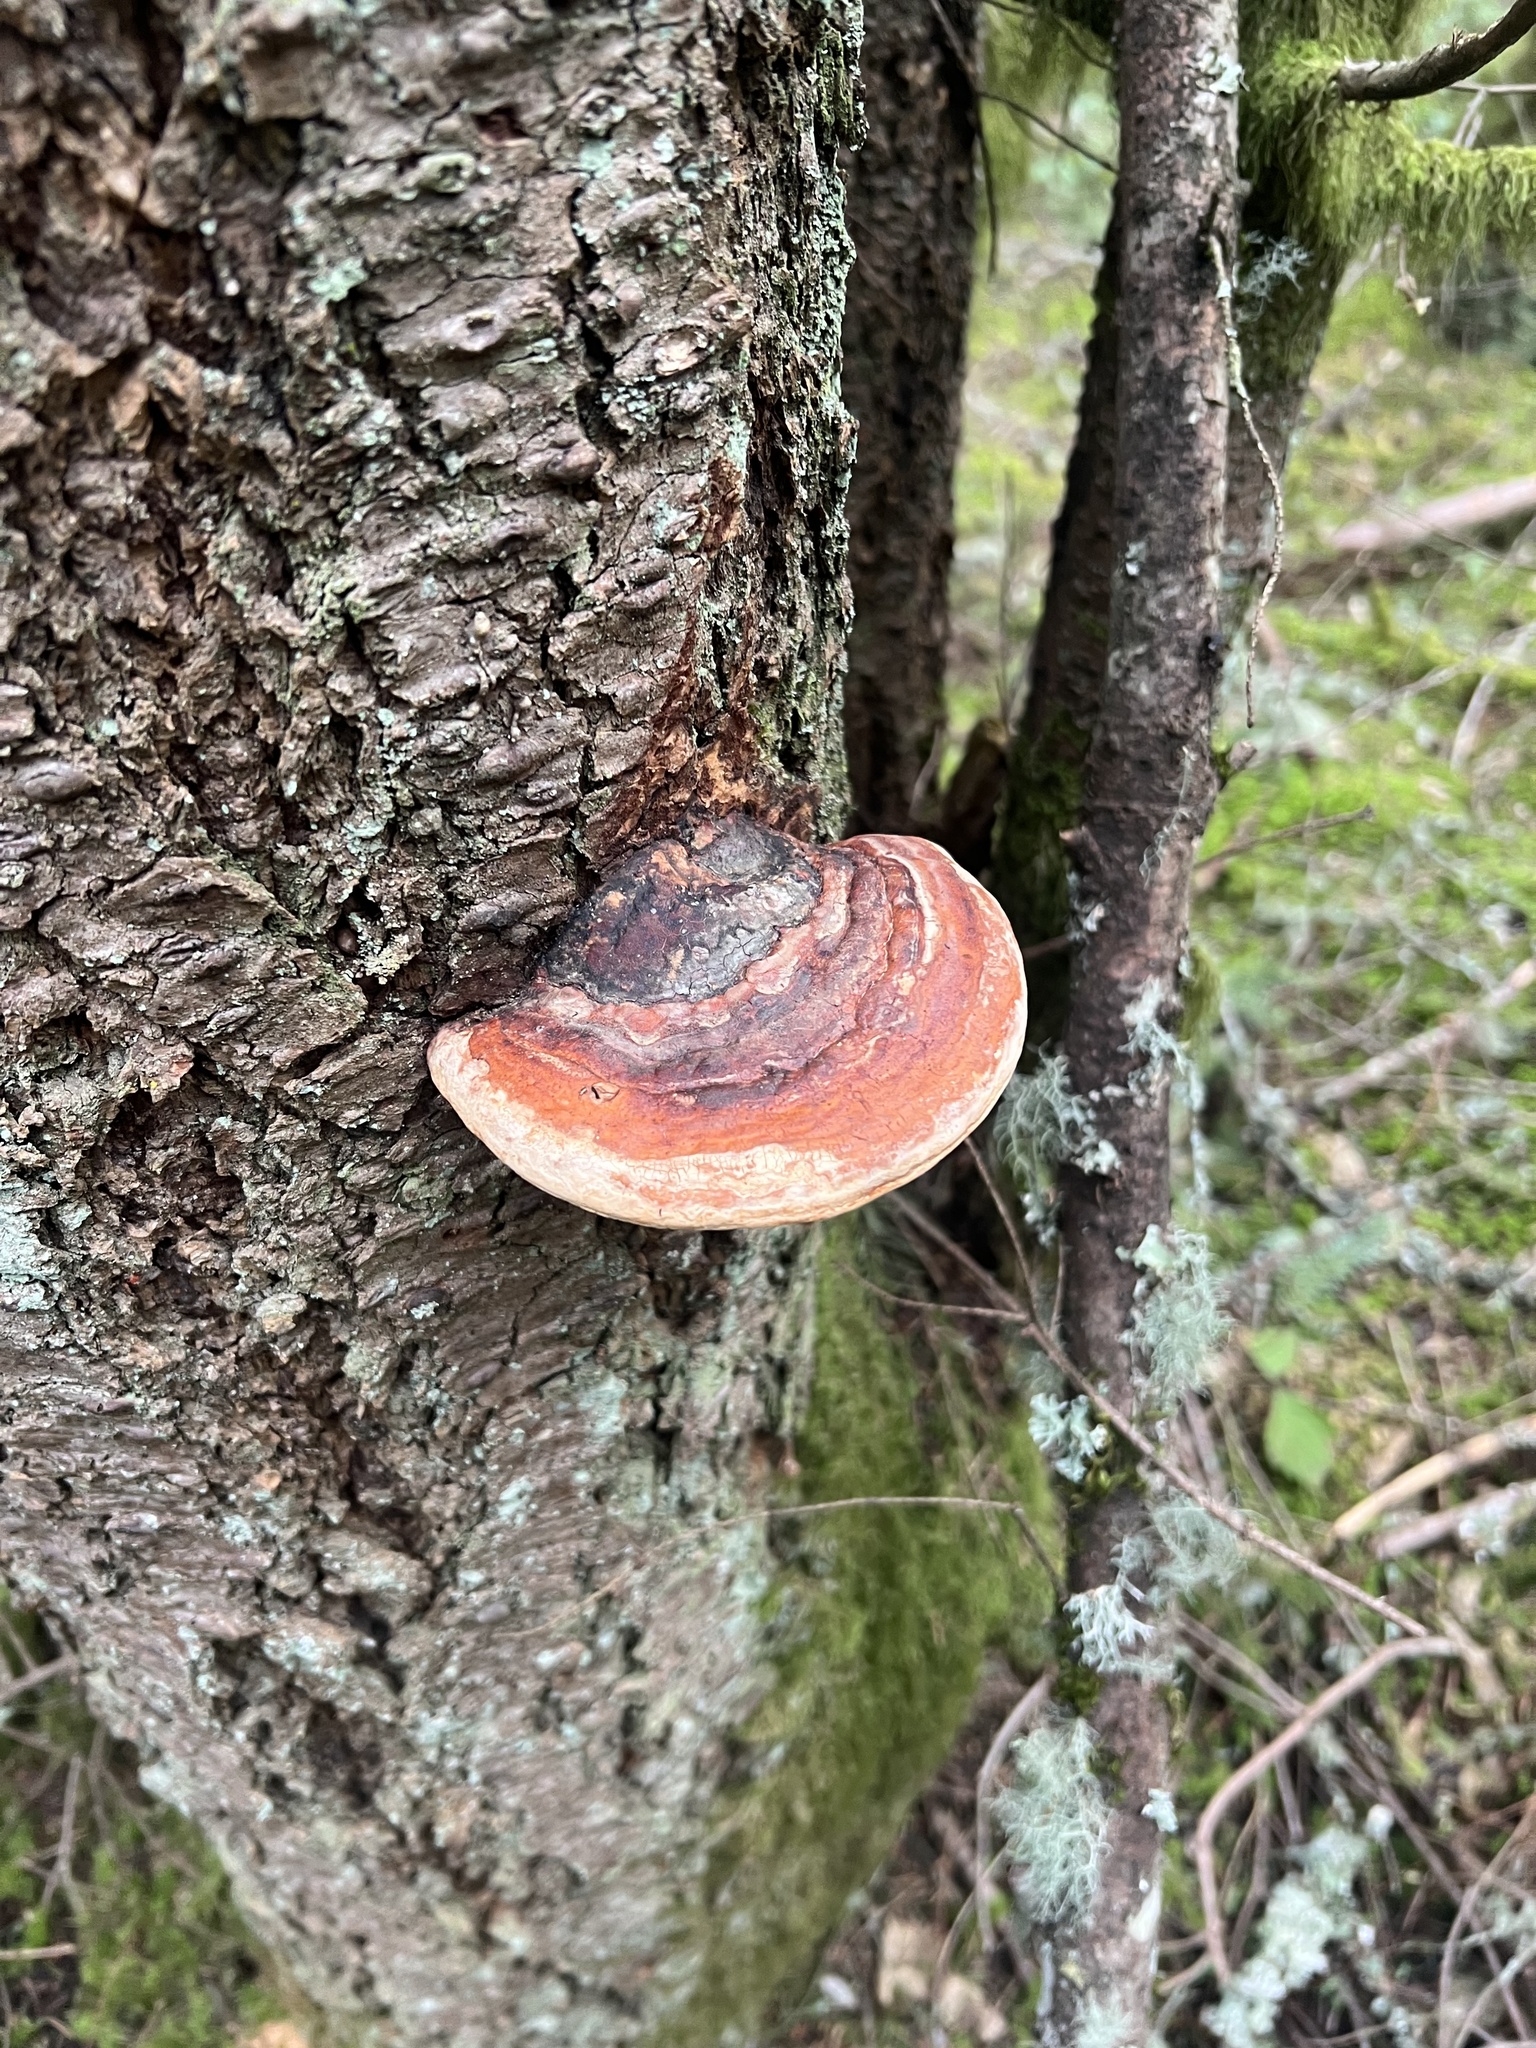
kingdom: Fungi
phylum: Basidiomycota
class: Agaricomycetes
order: Polyporales
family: Fomitopsidaceae
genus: Fomitopsis
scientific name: Fomitopsis mounceae
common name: Northern red belt
